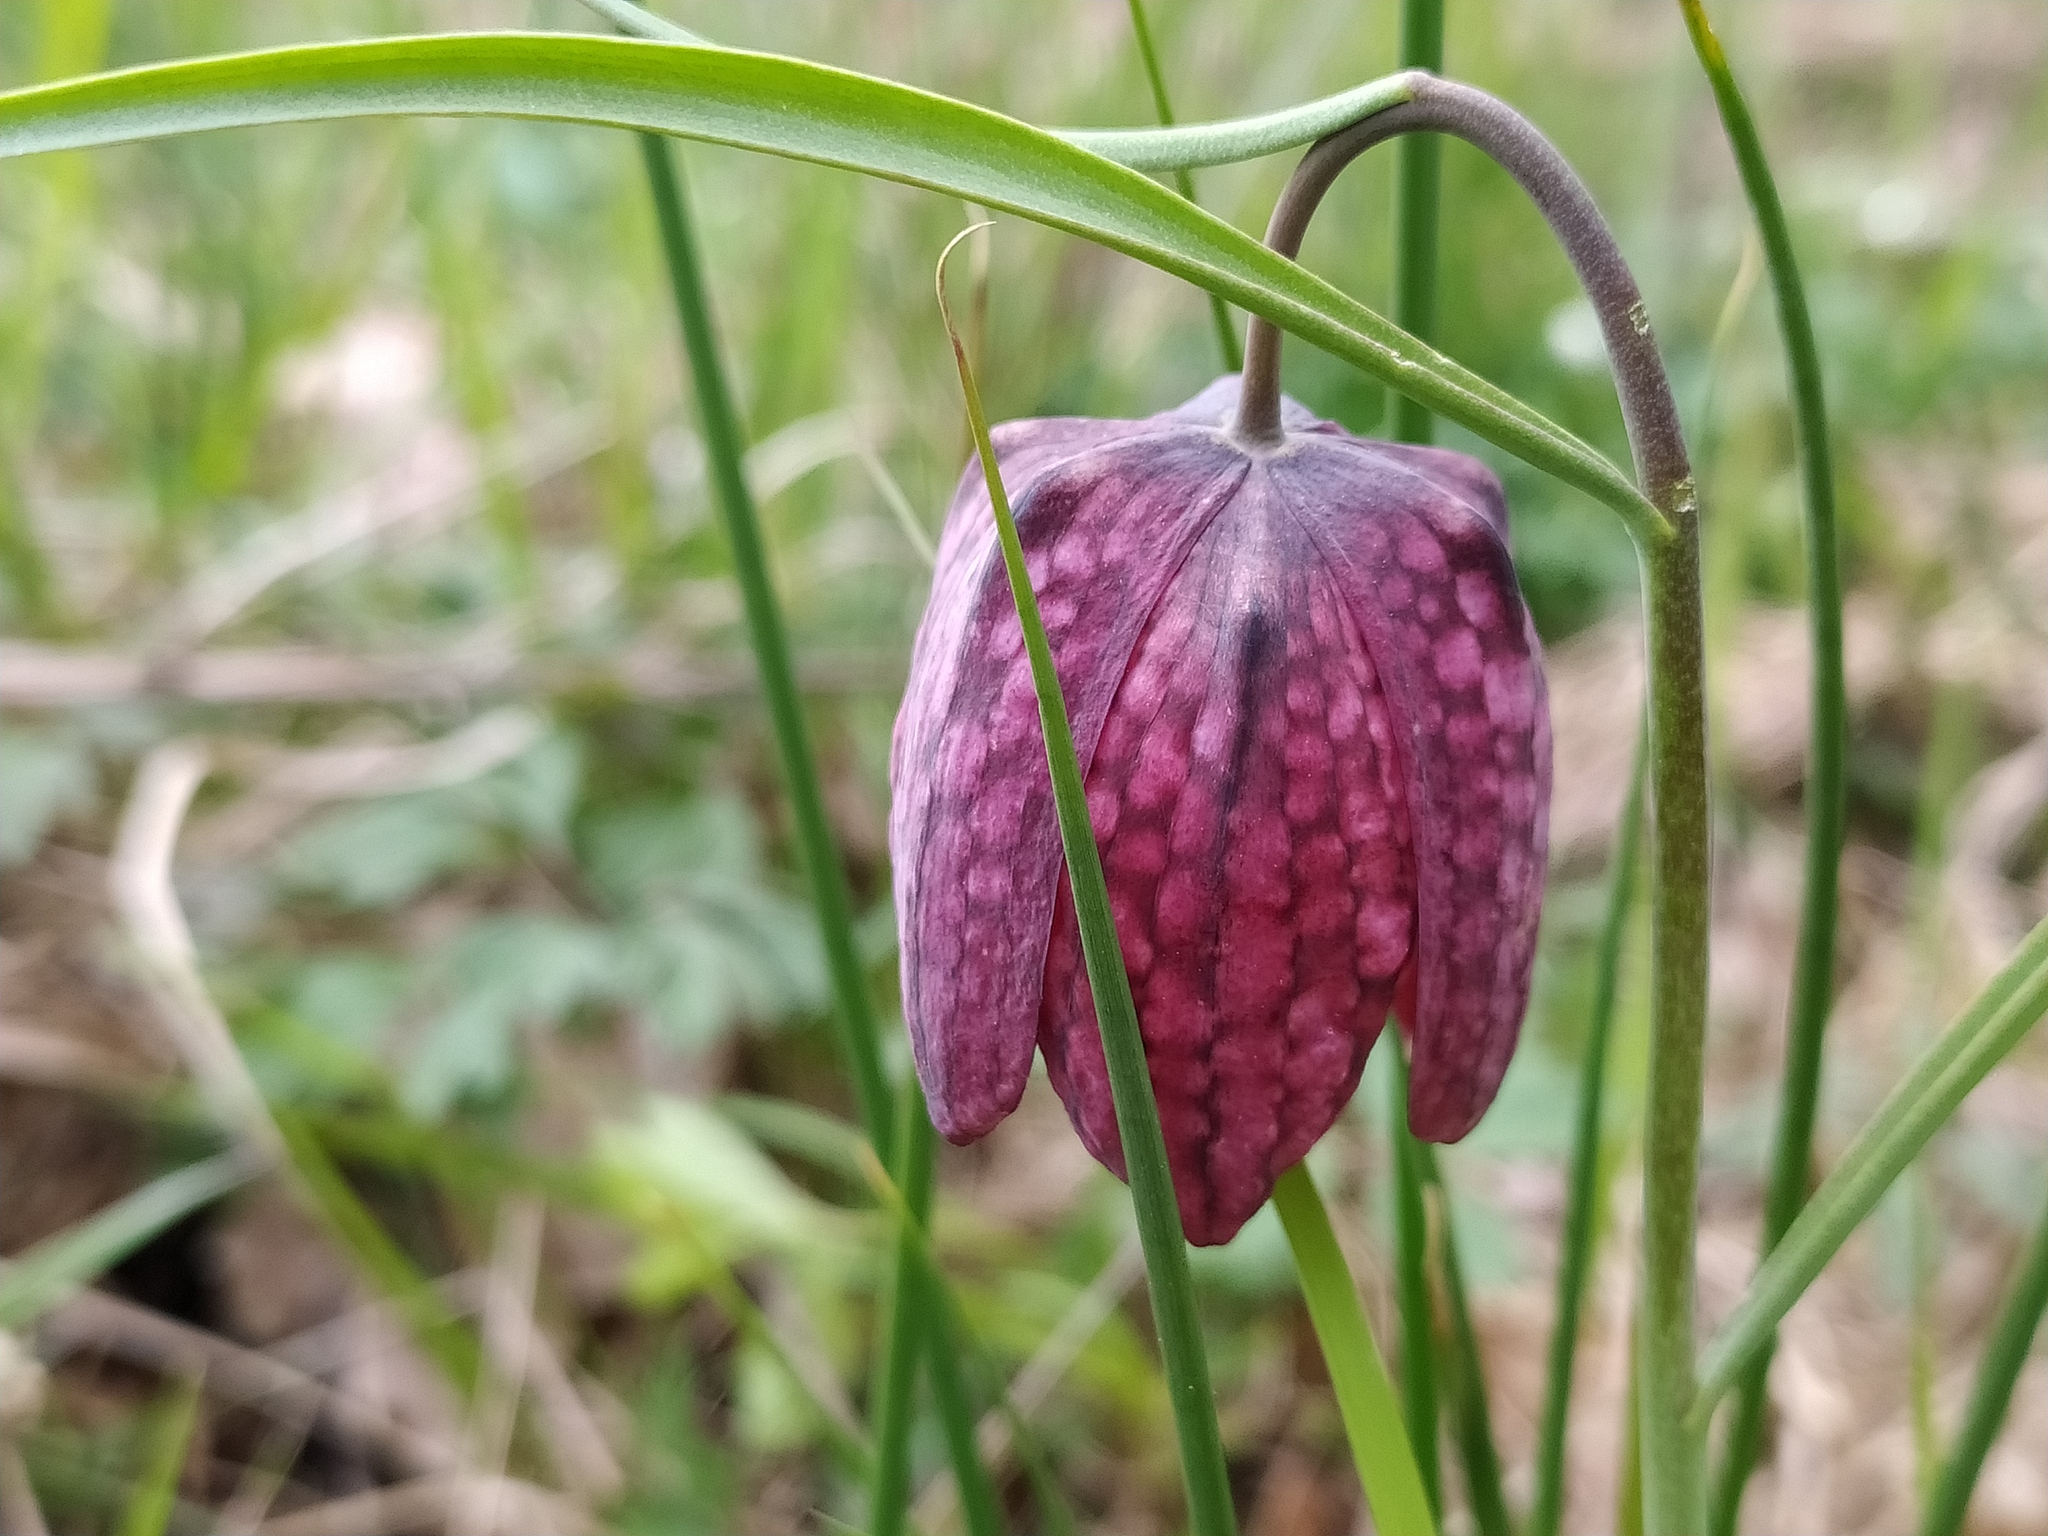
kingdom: Plantae
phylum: Tracheophyta
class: Liliopsida
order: Liliales
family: Liliaceae
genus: Fritillaria
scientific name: Fritillaria meleagris
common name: Fritillary
